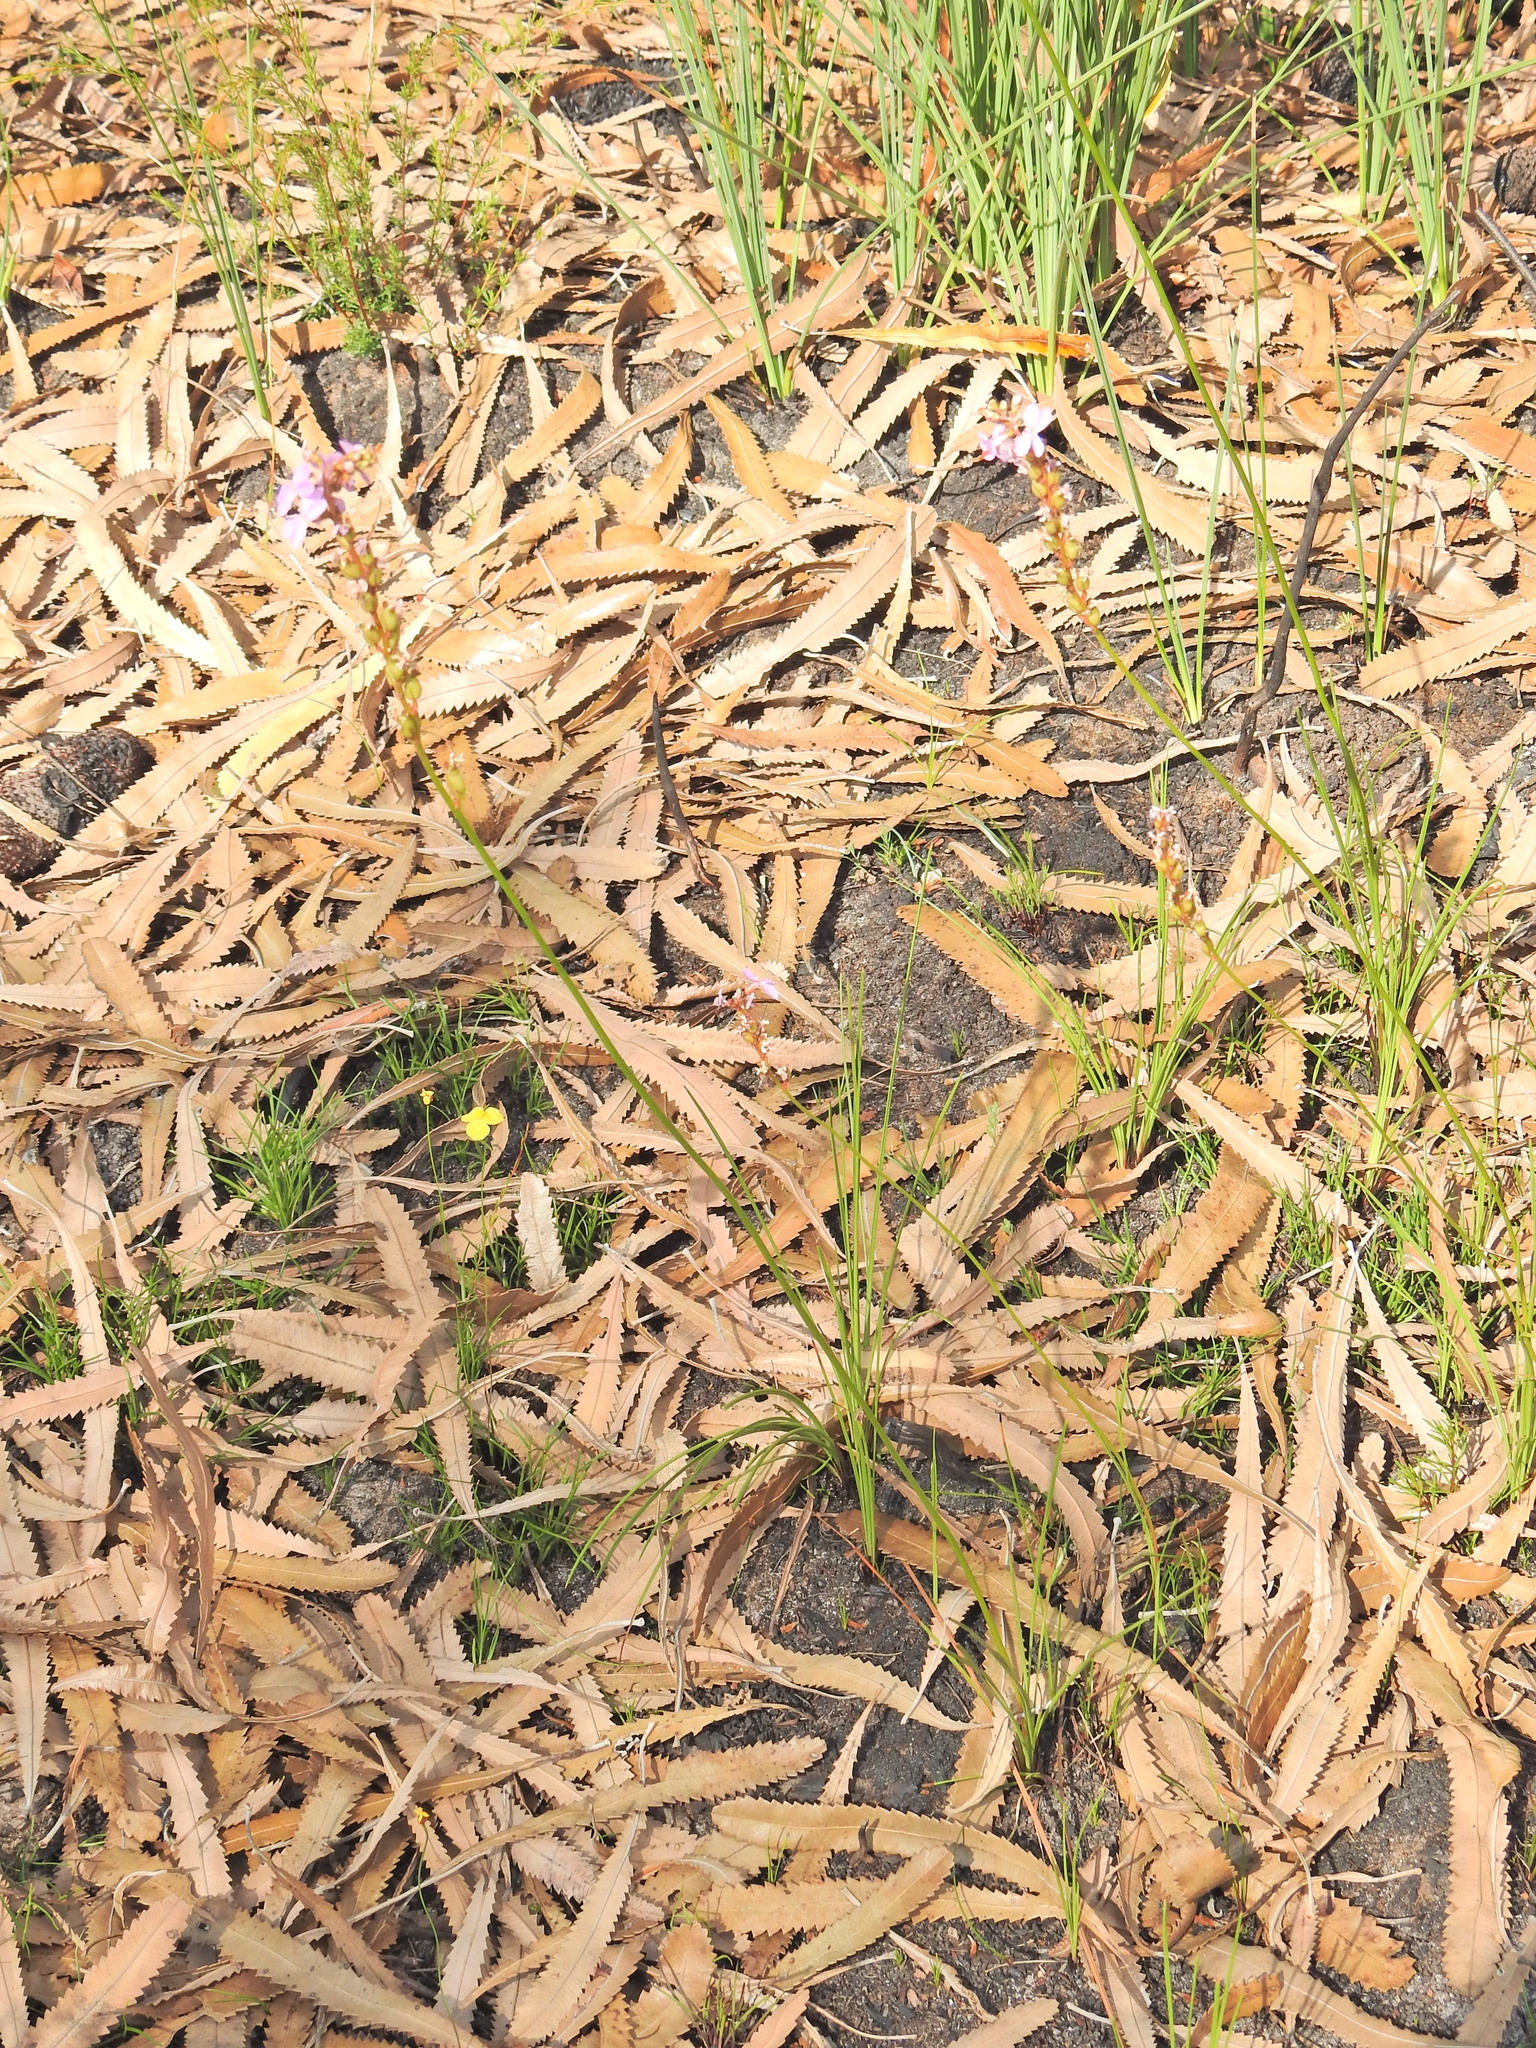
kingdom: Plantae
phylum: Tracheophyta
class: Magnoliopsida
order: Asterales
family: Stylidiaceae
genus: Stylidium
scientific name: Stylidium graminifolium
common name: Grass triggerplant
